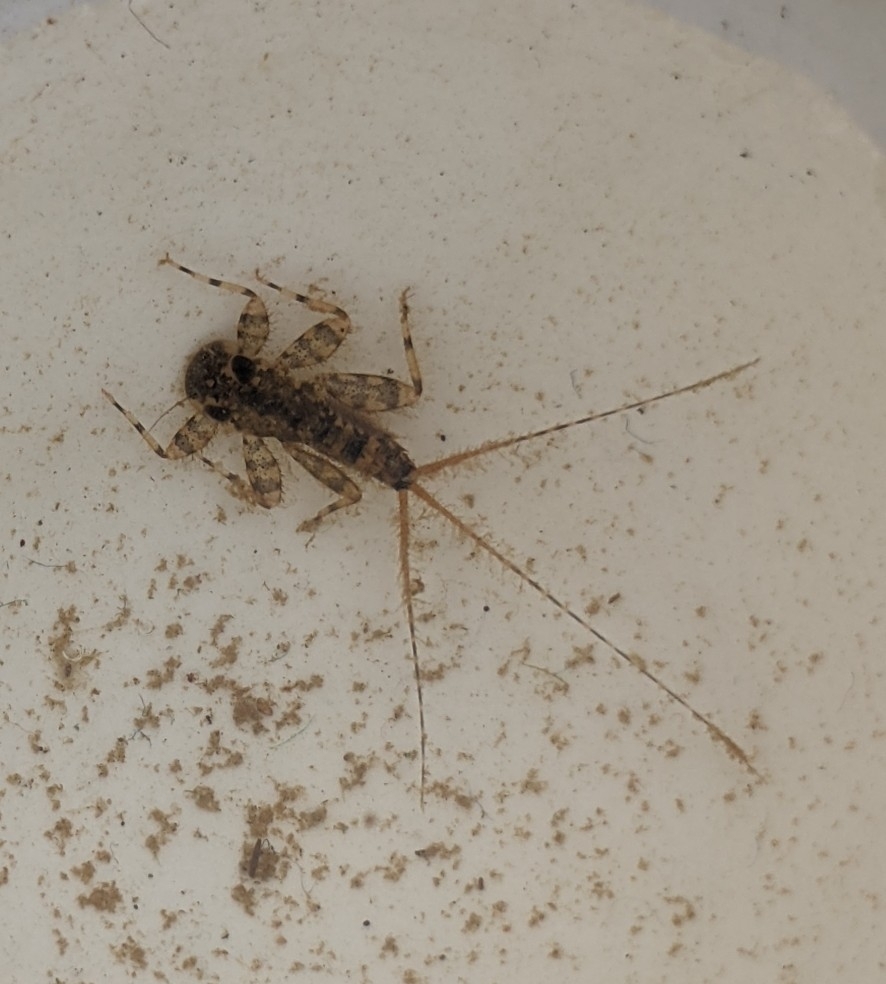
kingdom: Animalia
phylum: Arthropoda
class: Insecta
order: Ephemeroptera
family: Heptageniidae
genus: Maccaffertium
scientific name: Maccaffertium modestum
